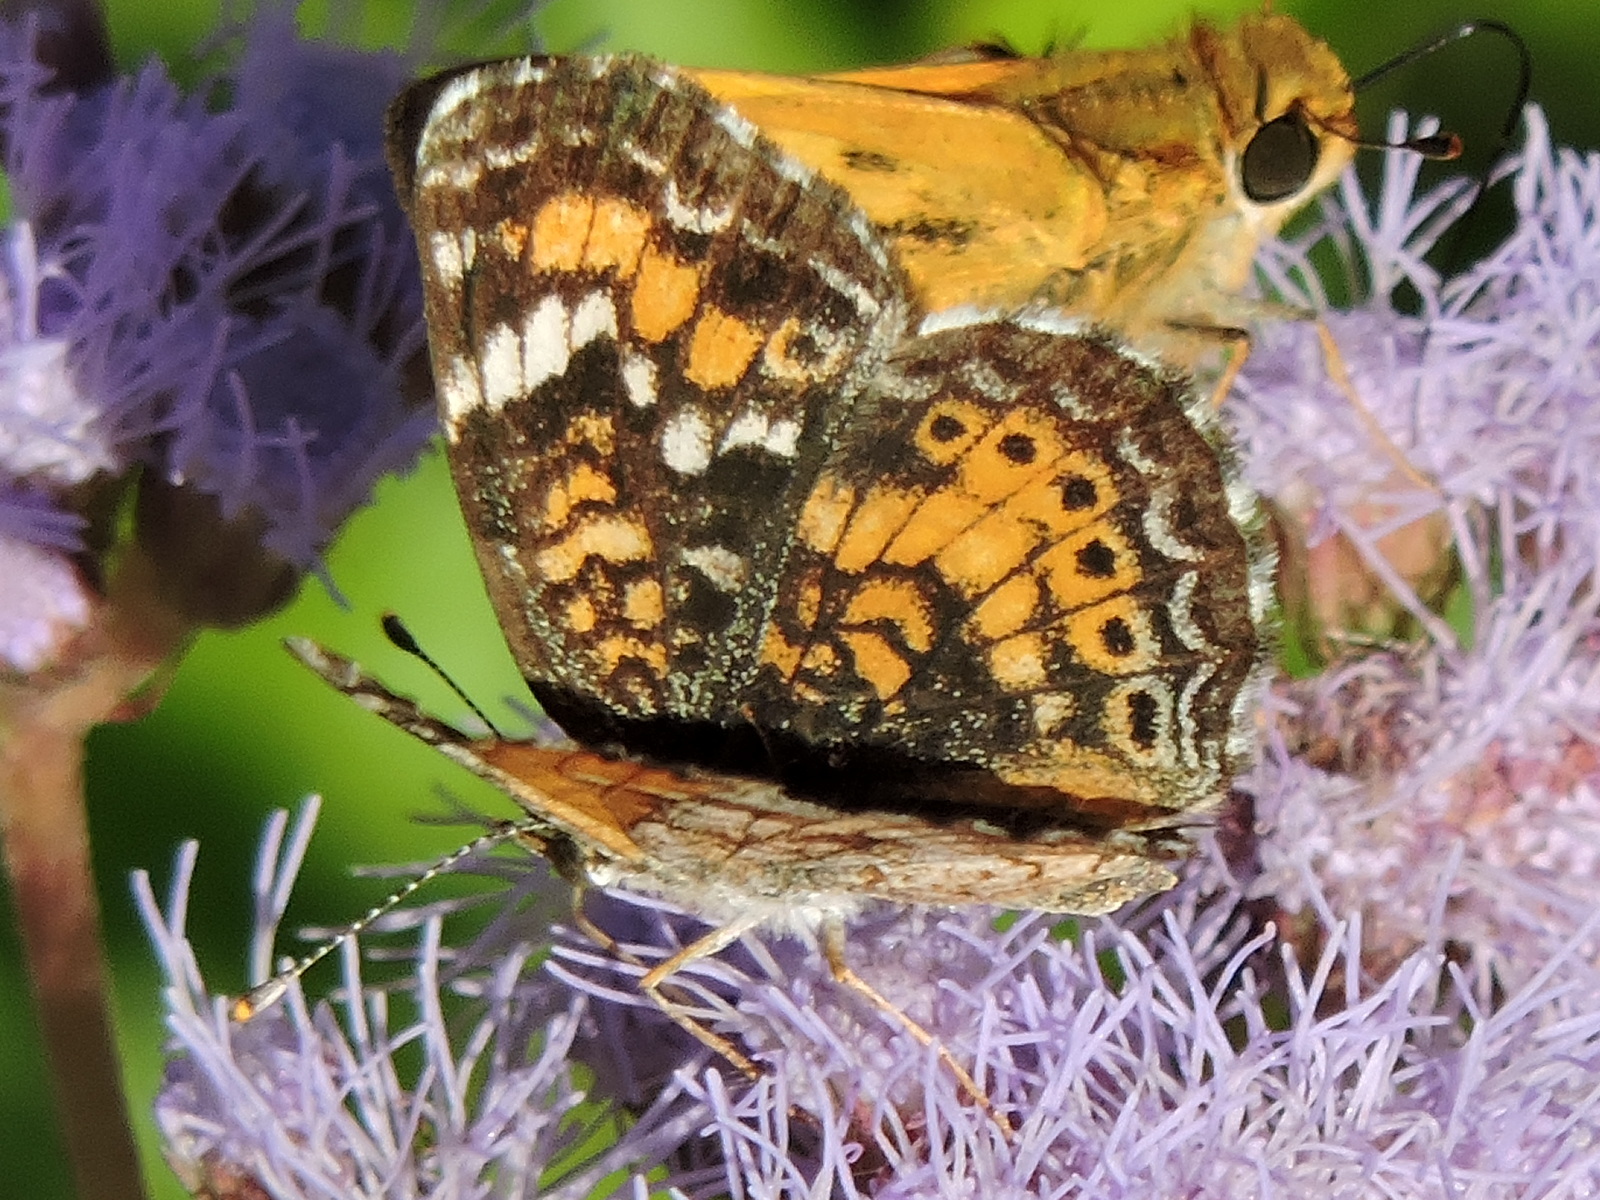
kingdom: Animalia
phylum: Arthropoda
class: Insecta
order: Lepidoptera
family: Nymphalidae
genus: Phyciodes
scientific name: Phyciodes phaon
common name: Phaon crescent
